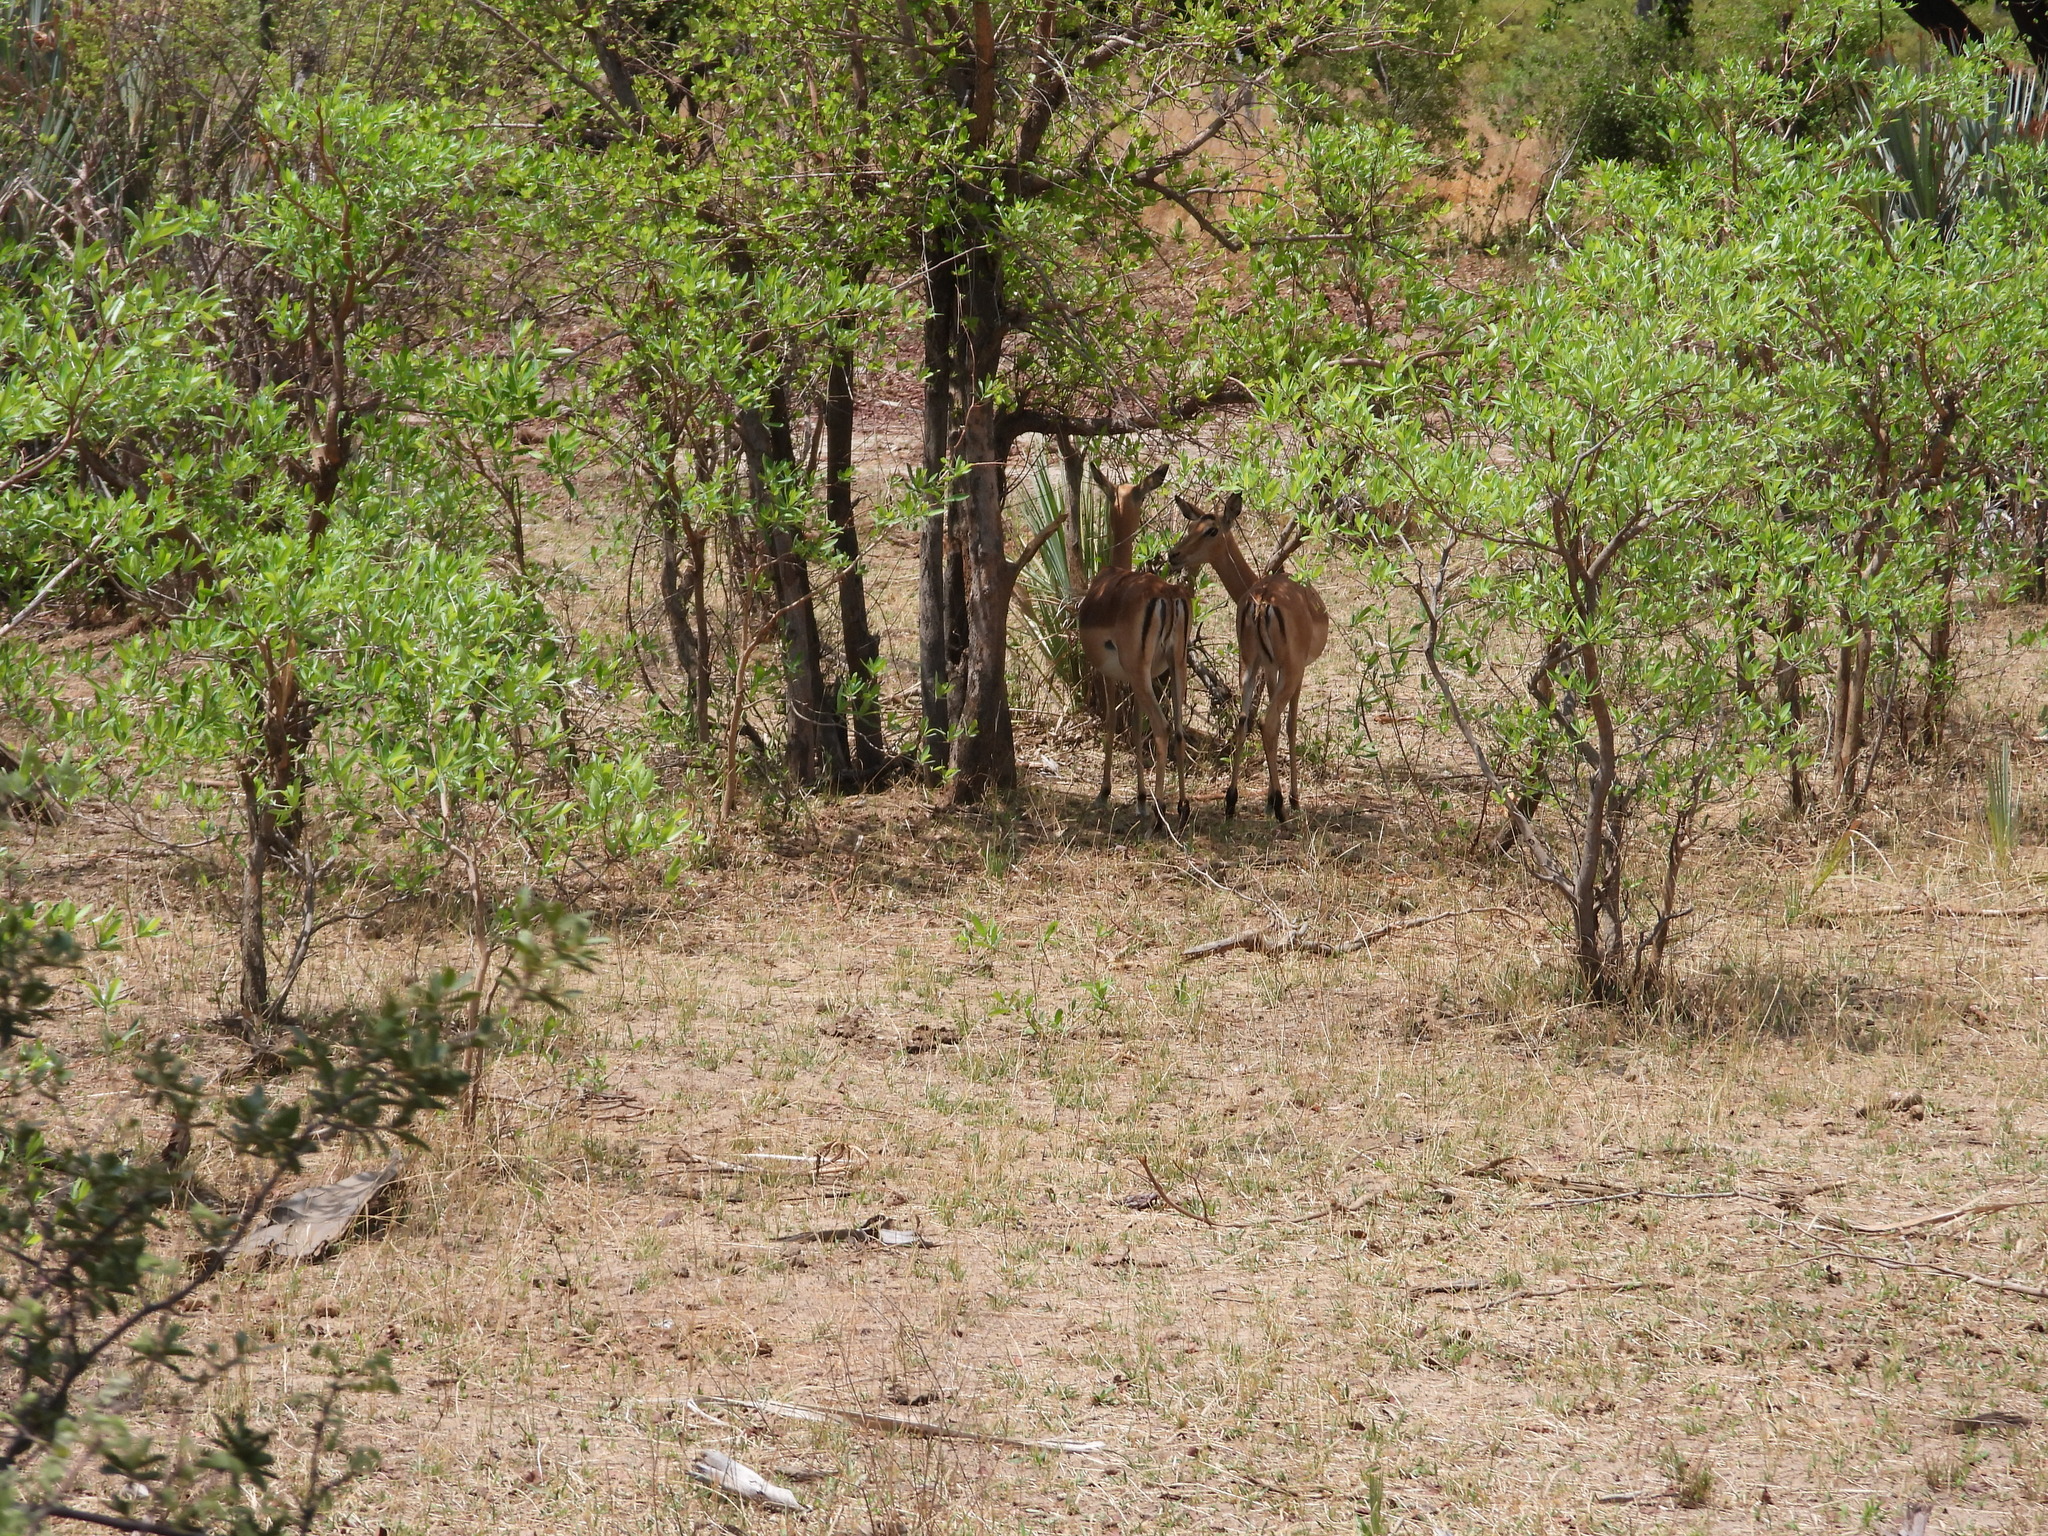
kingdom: Animalia
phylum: Chordata
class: Mammalia
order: Artiodactyla
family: Bovidae
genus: Aepyceros
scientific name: Aepyceros melampus
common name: Impala
